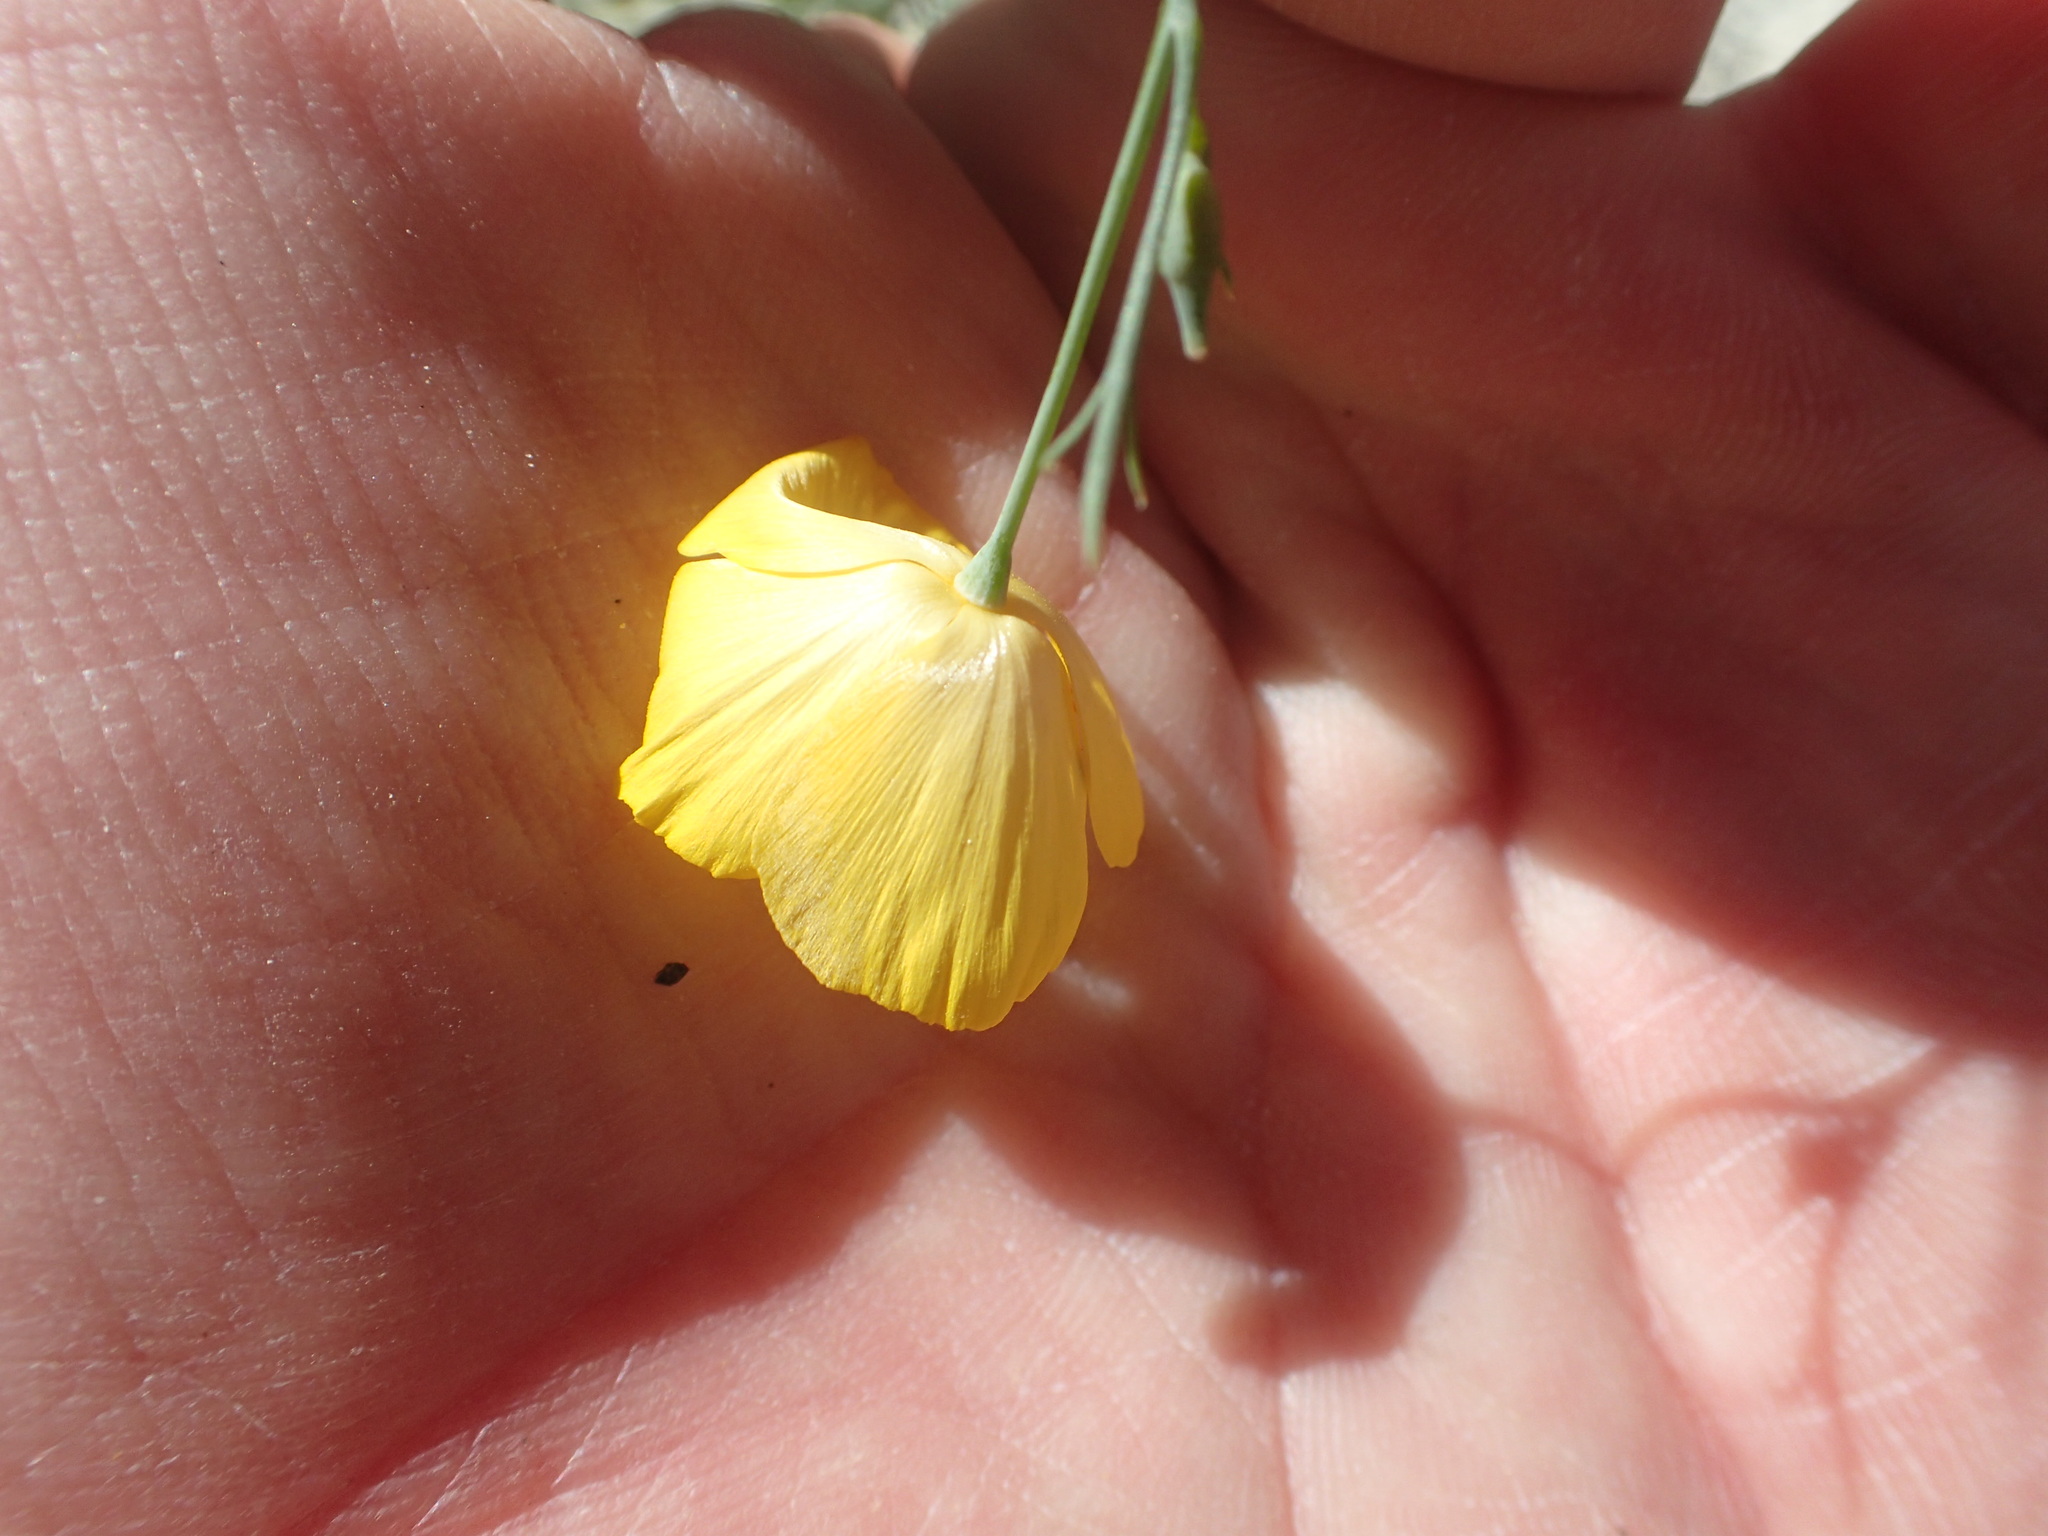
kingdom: Plantae
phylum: Tracheophyta
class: Magnoliopsida
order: Ranunculales
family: Papaveraceae
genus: Eschscholzia
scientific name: Eschscholzia parishii
